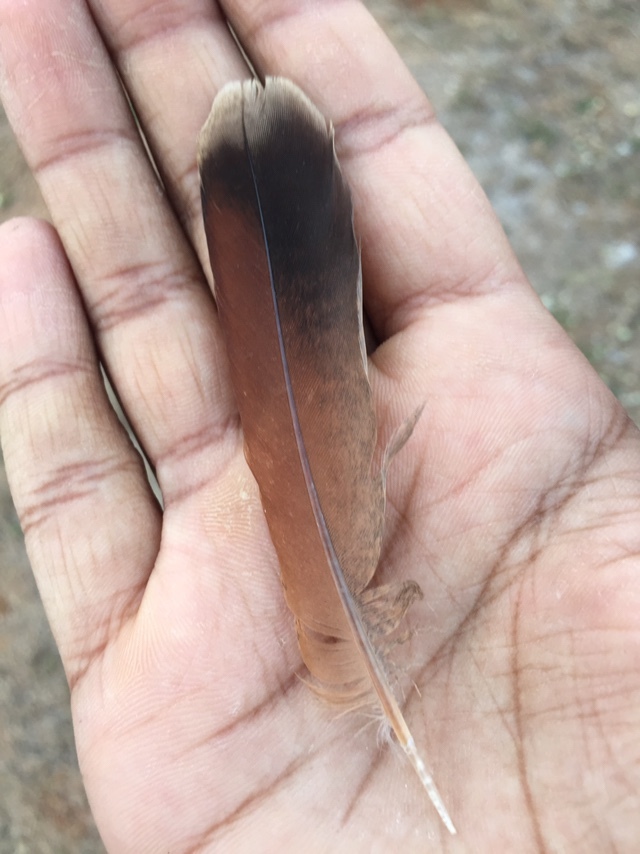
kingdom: Animalia
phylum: Chordata
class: Aves
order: Galliformes
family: Phasianidae
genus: Ortygornis
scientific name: Ortygornis pondicerianus
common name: Grey francolin
